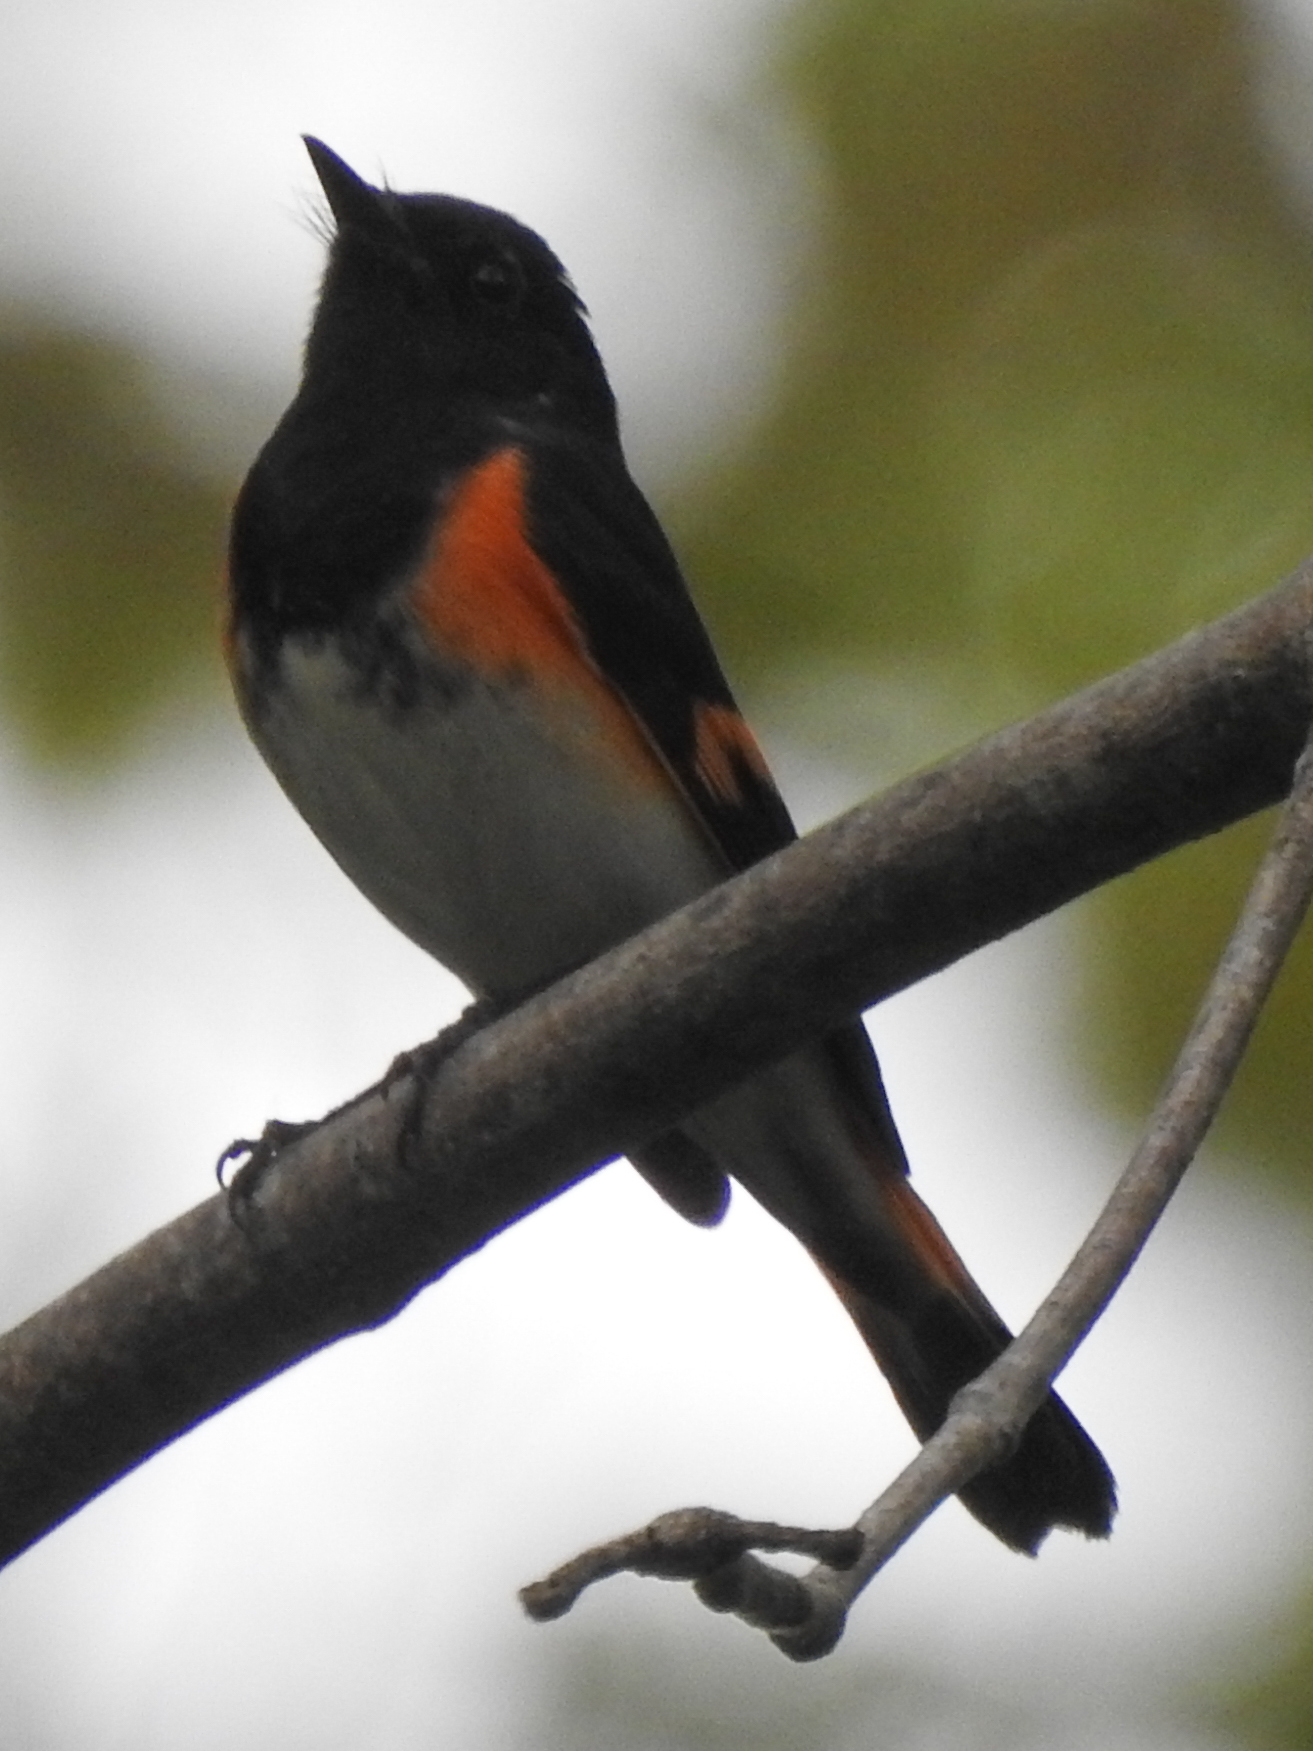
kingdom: Animalia
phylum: Chordata
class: Aves
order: Passeriformes
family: Parulidae
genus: Setophaga
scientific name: Setophaga ruticilla
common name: American redstart
